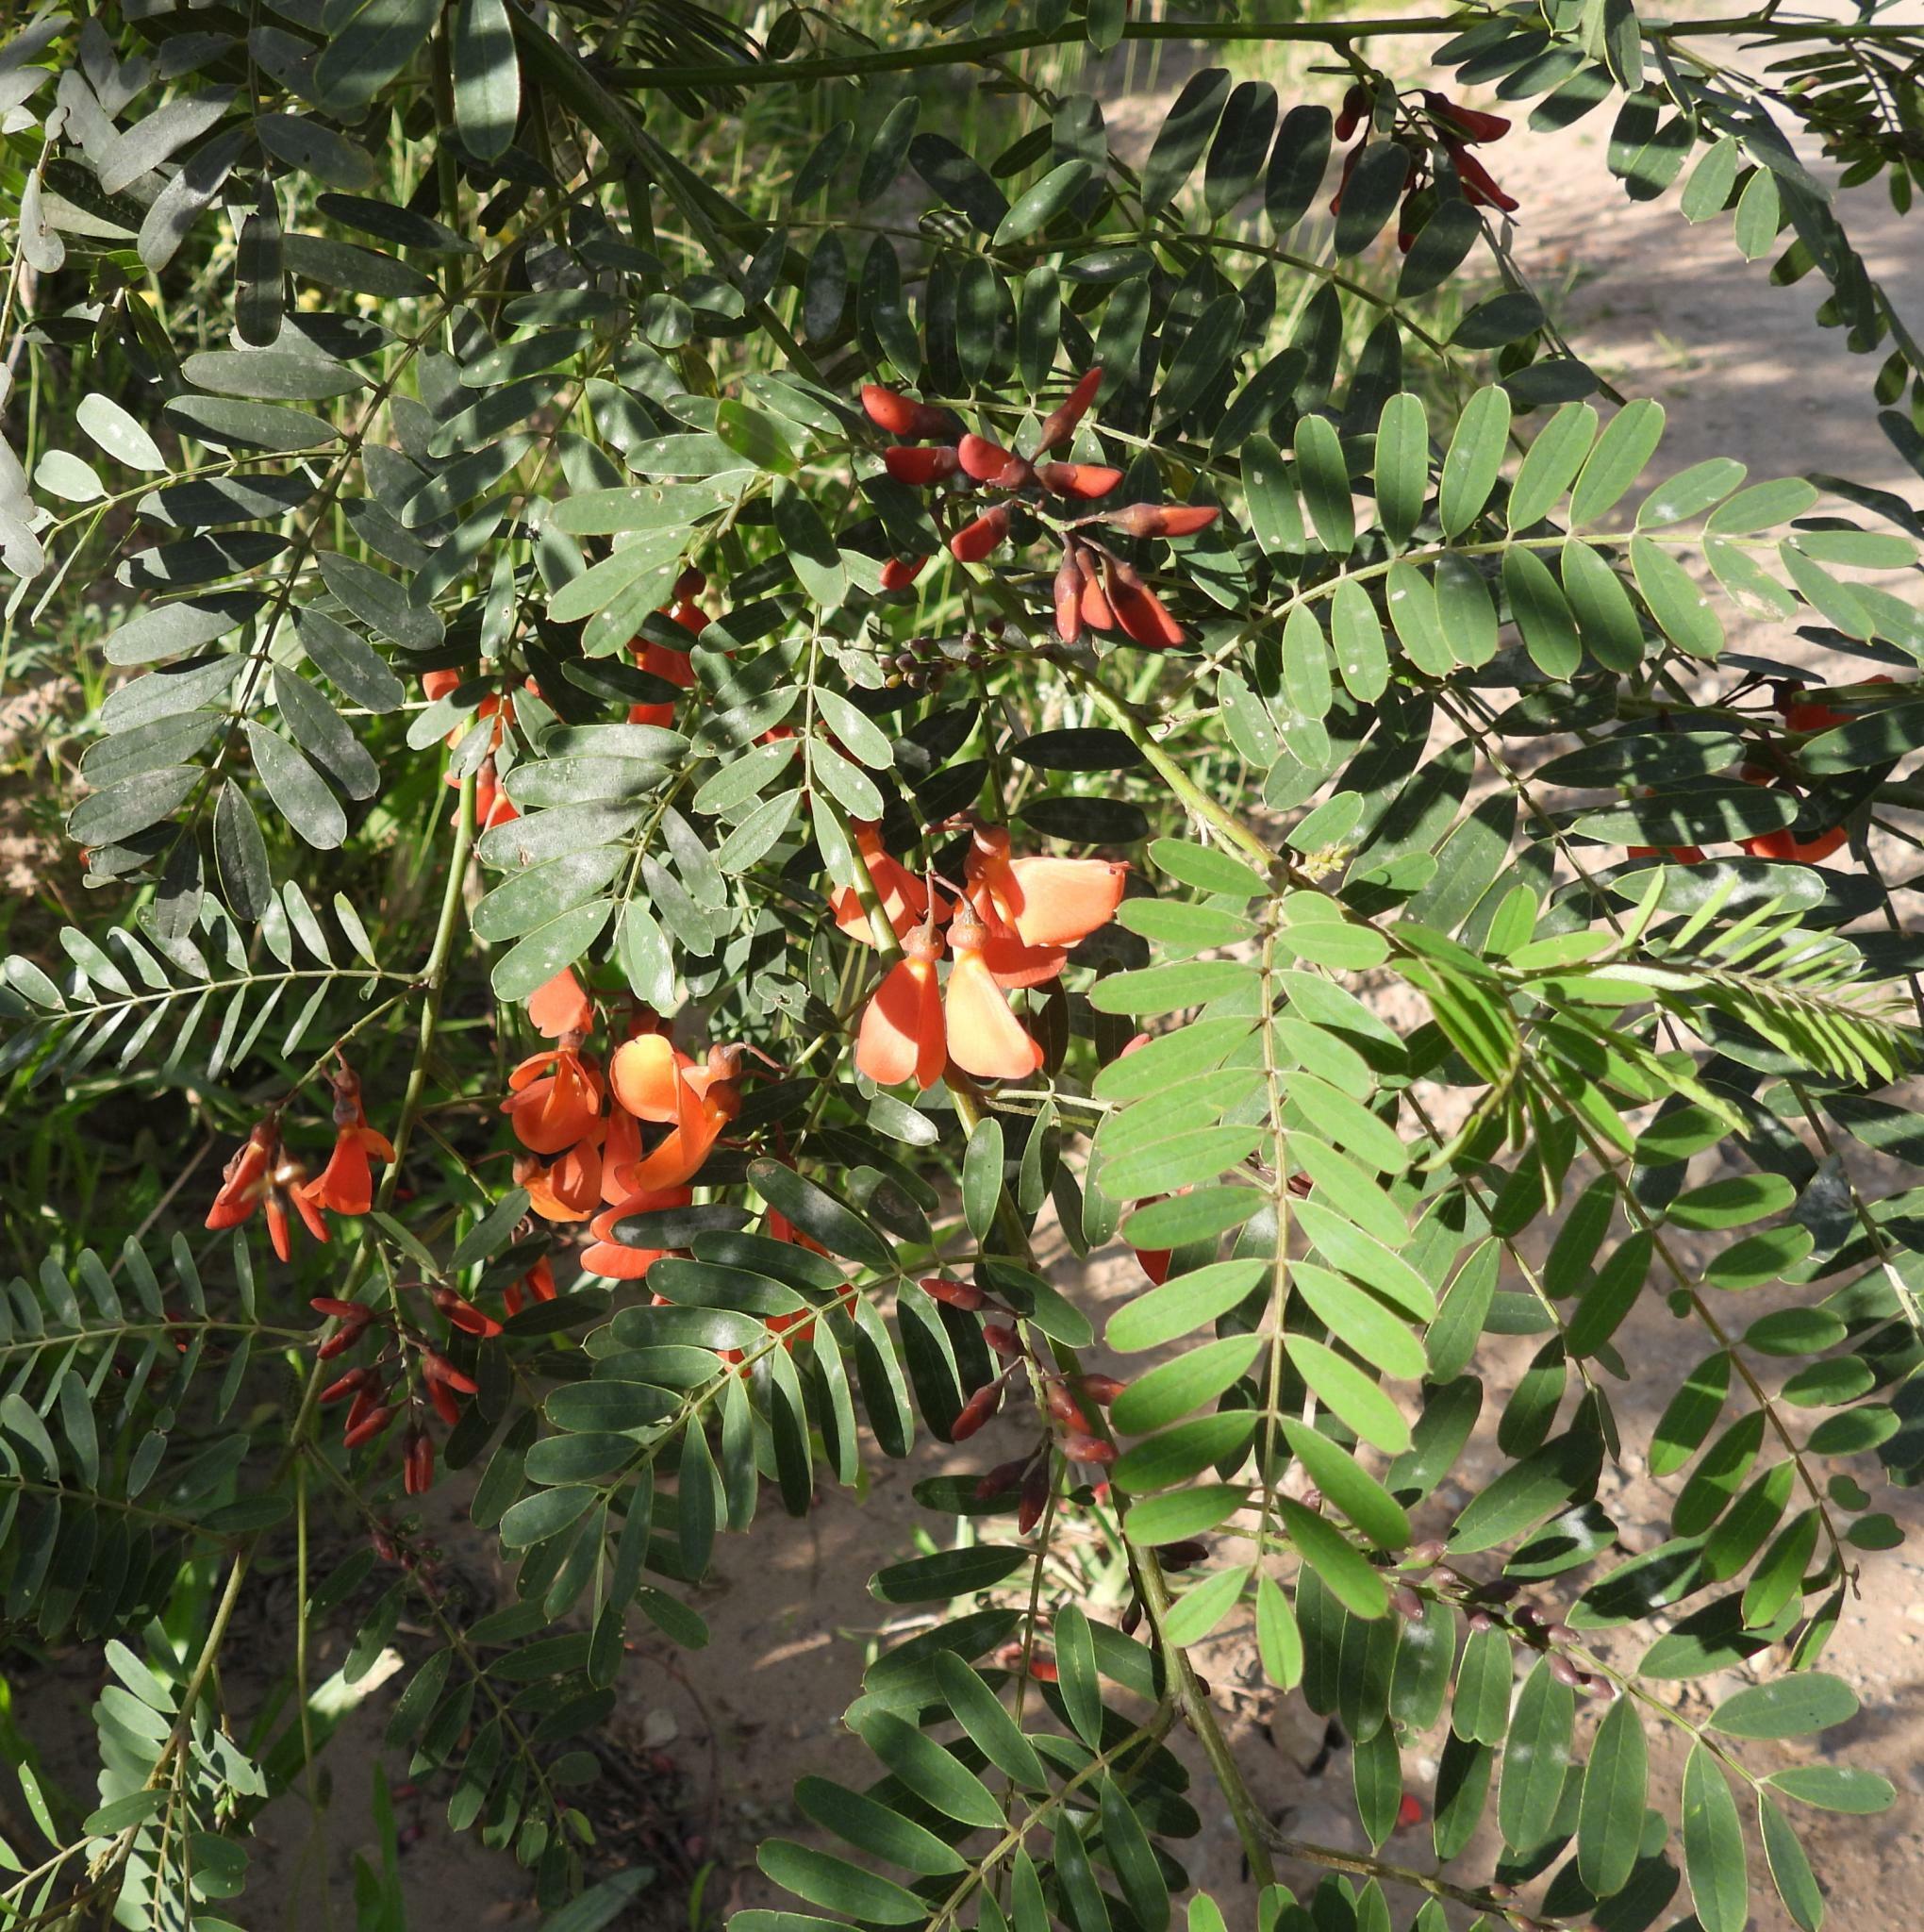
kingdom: Plantae
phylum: Tracheophyta
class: Magnoliopsida
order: Fabales
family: Fabaceae
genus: Sesbania
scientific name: Sesbania punicea
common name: Rattlebox
